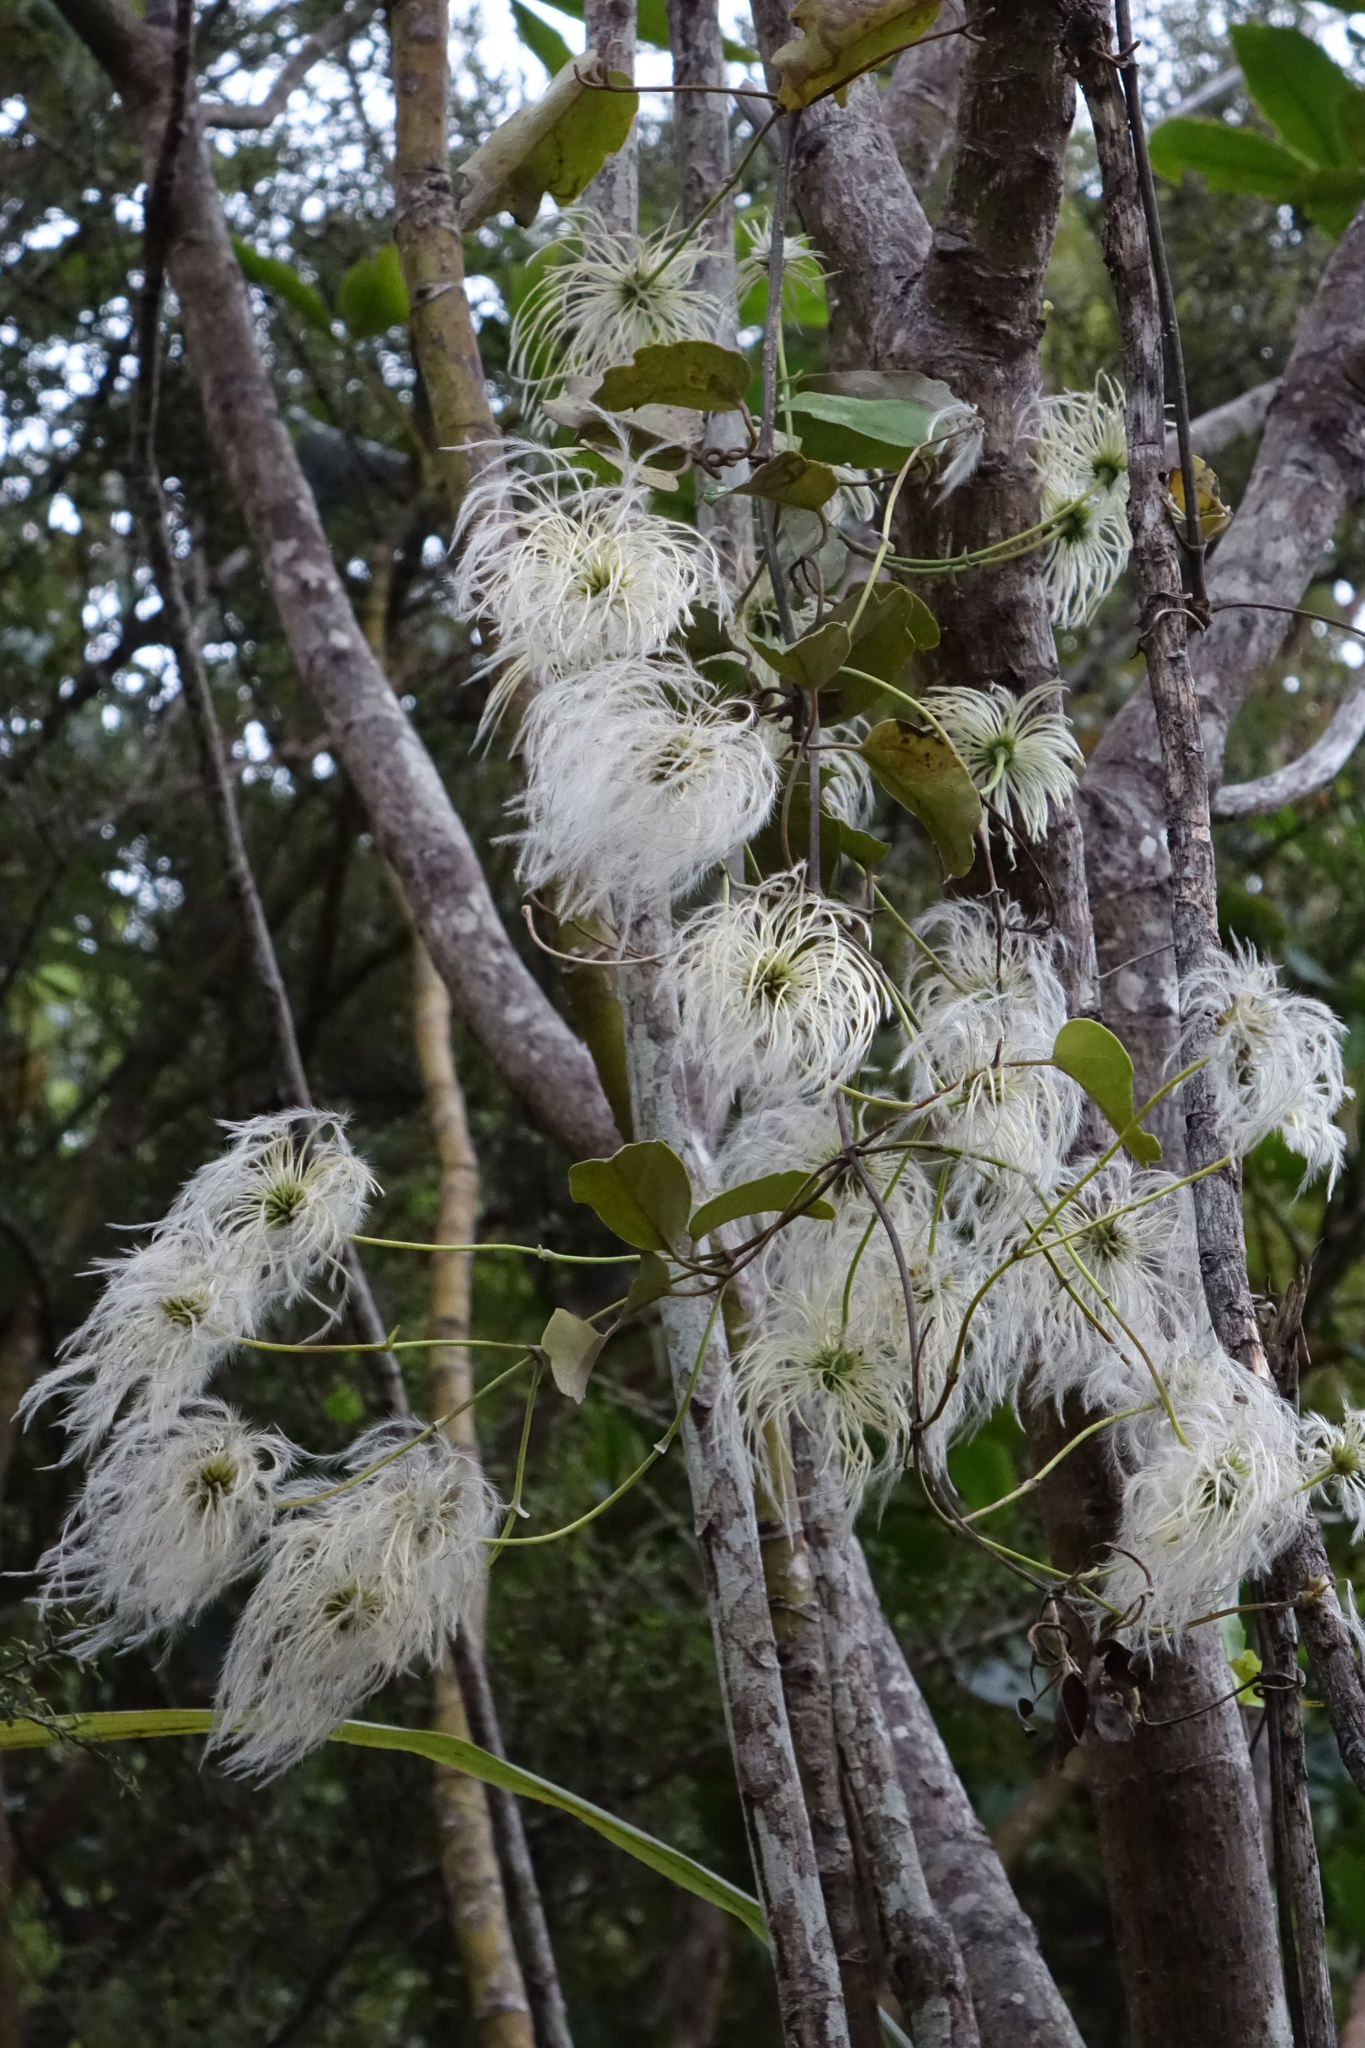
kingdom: Plantae
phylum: Tracheophyta
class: Magnoliopsida
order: Ranunculales
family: Ranunculaceae
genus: Clematis
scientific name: Clematis paniculata
